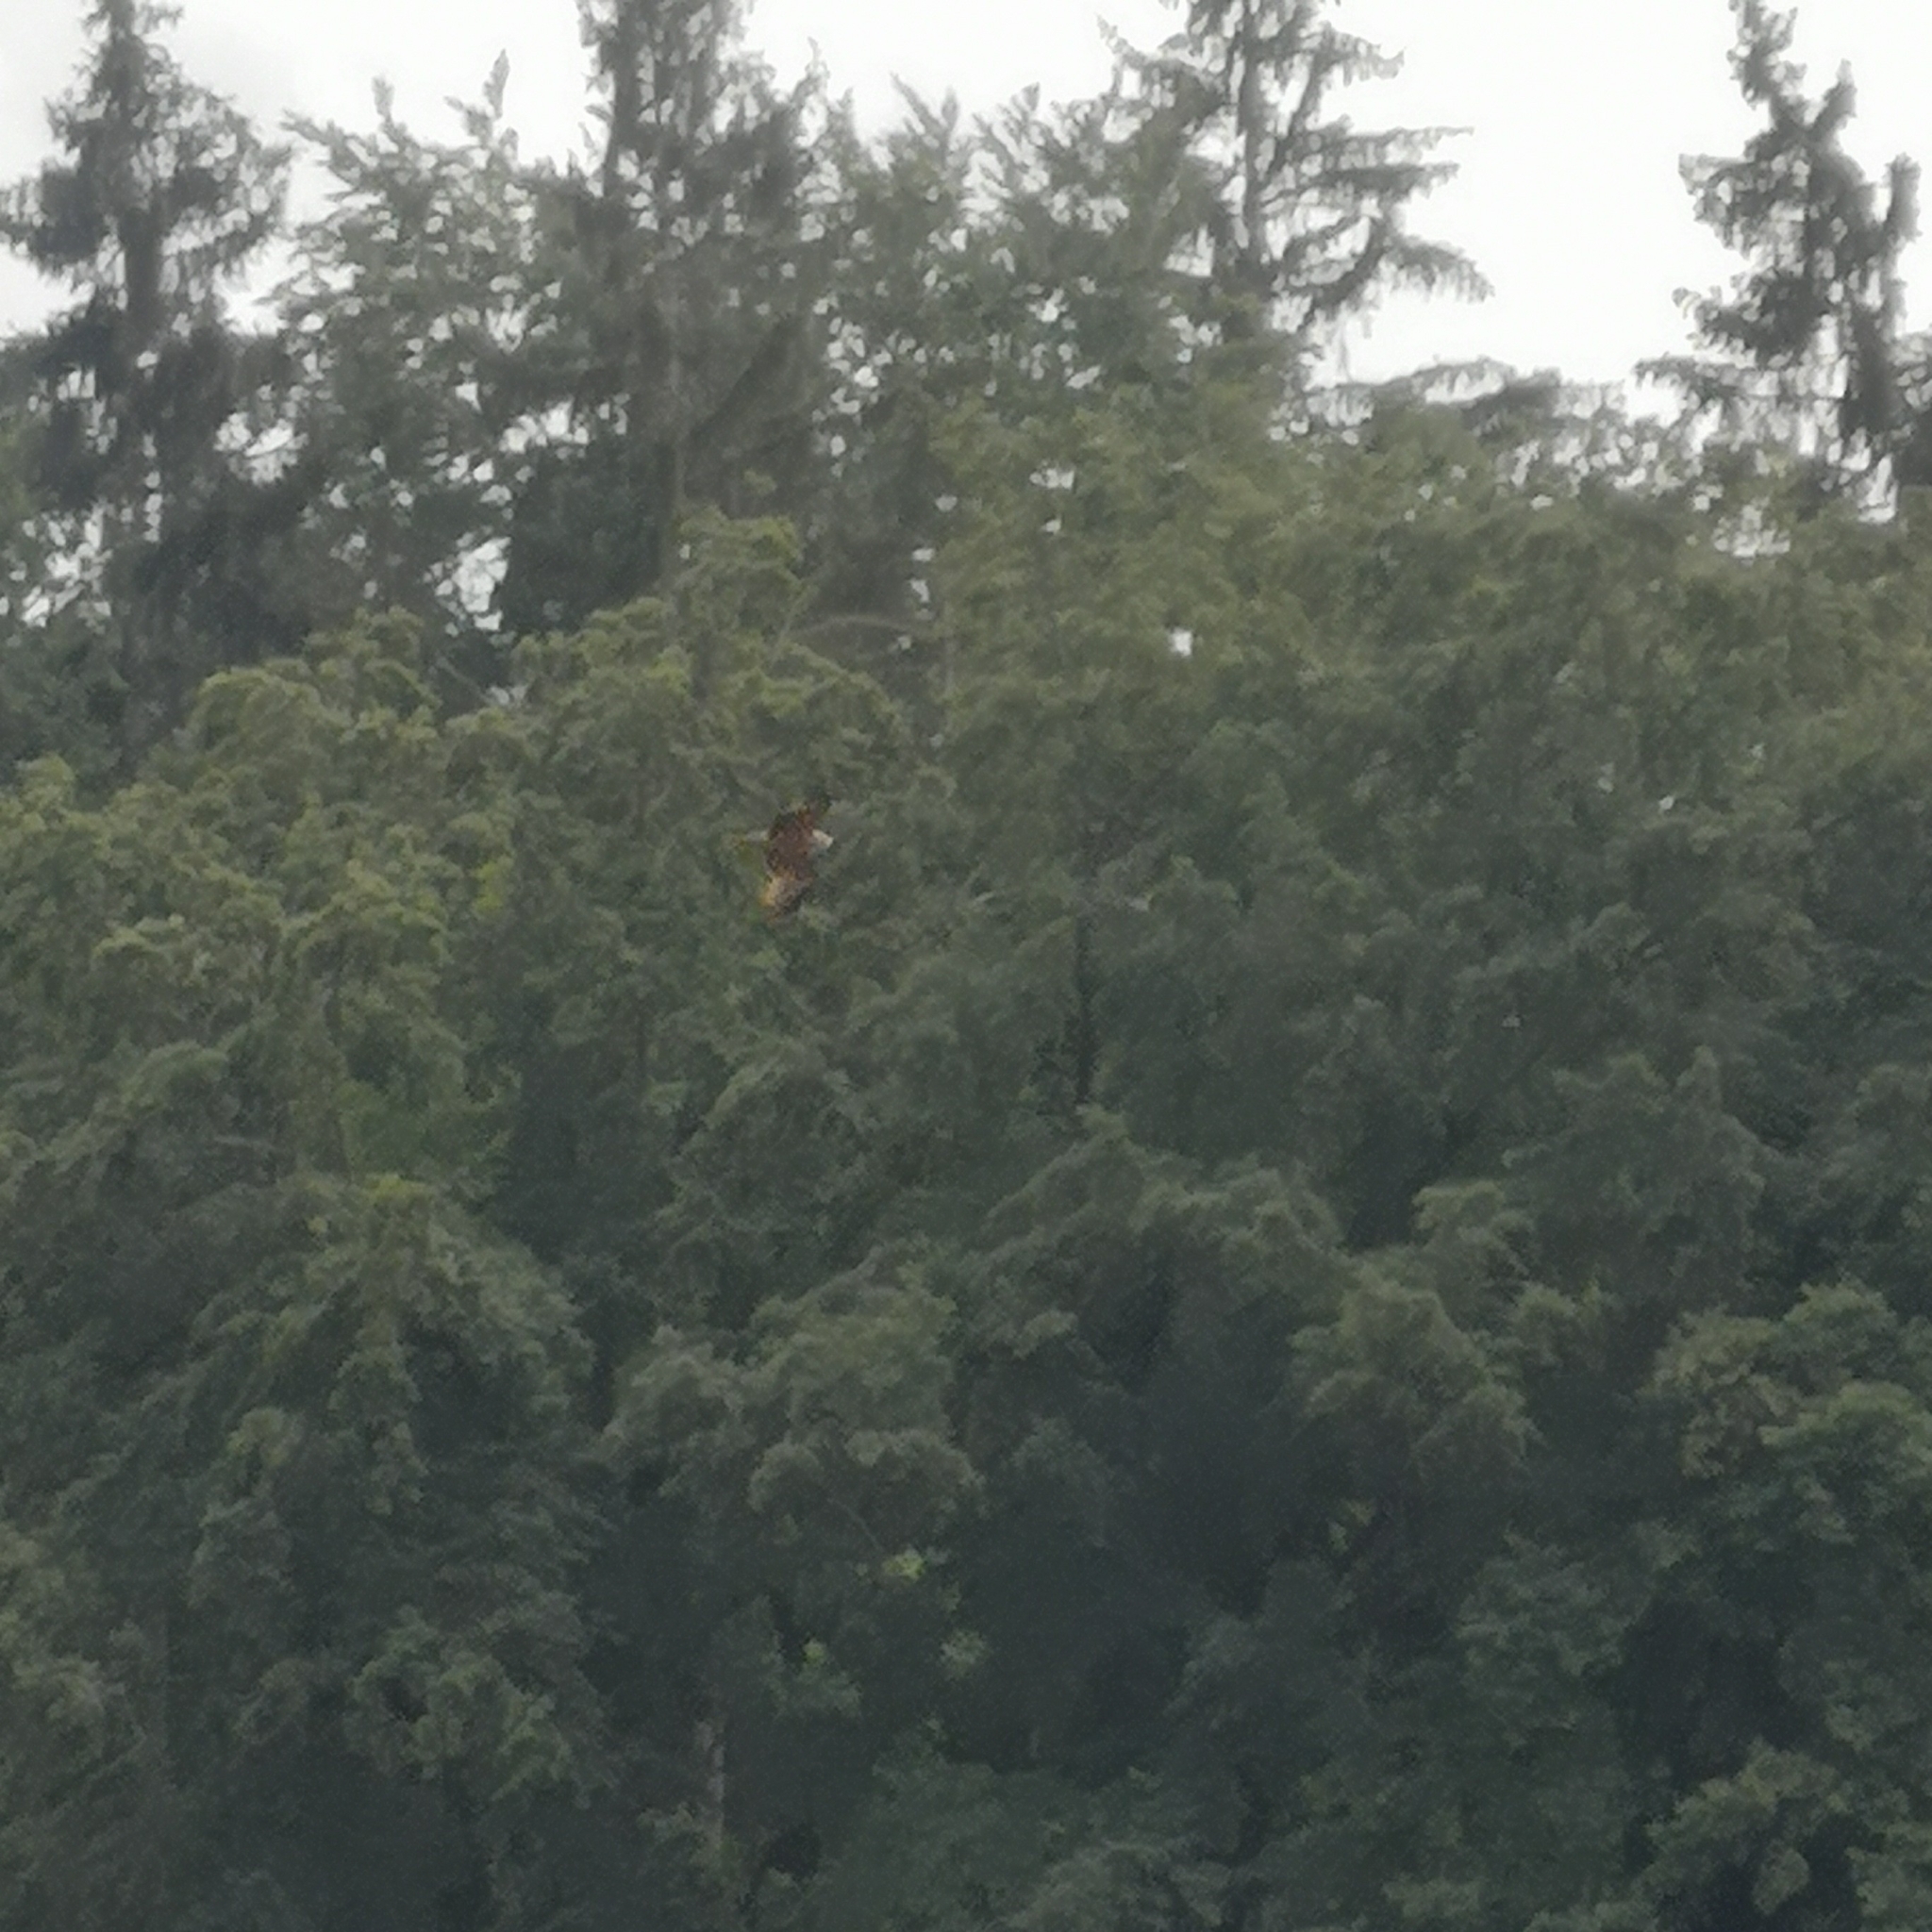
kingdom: Animalia
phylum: Chordata
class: Aves
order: Accipitriformes
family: Accipitridae
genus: Milvus
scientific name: Milvus milvus
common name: Red kite
